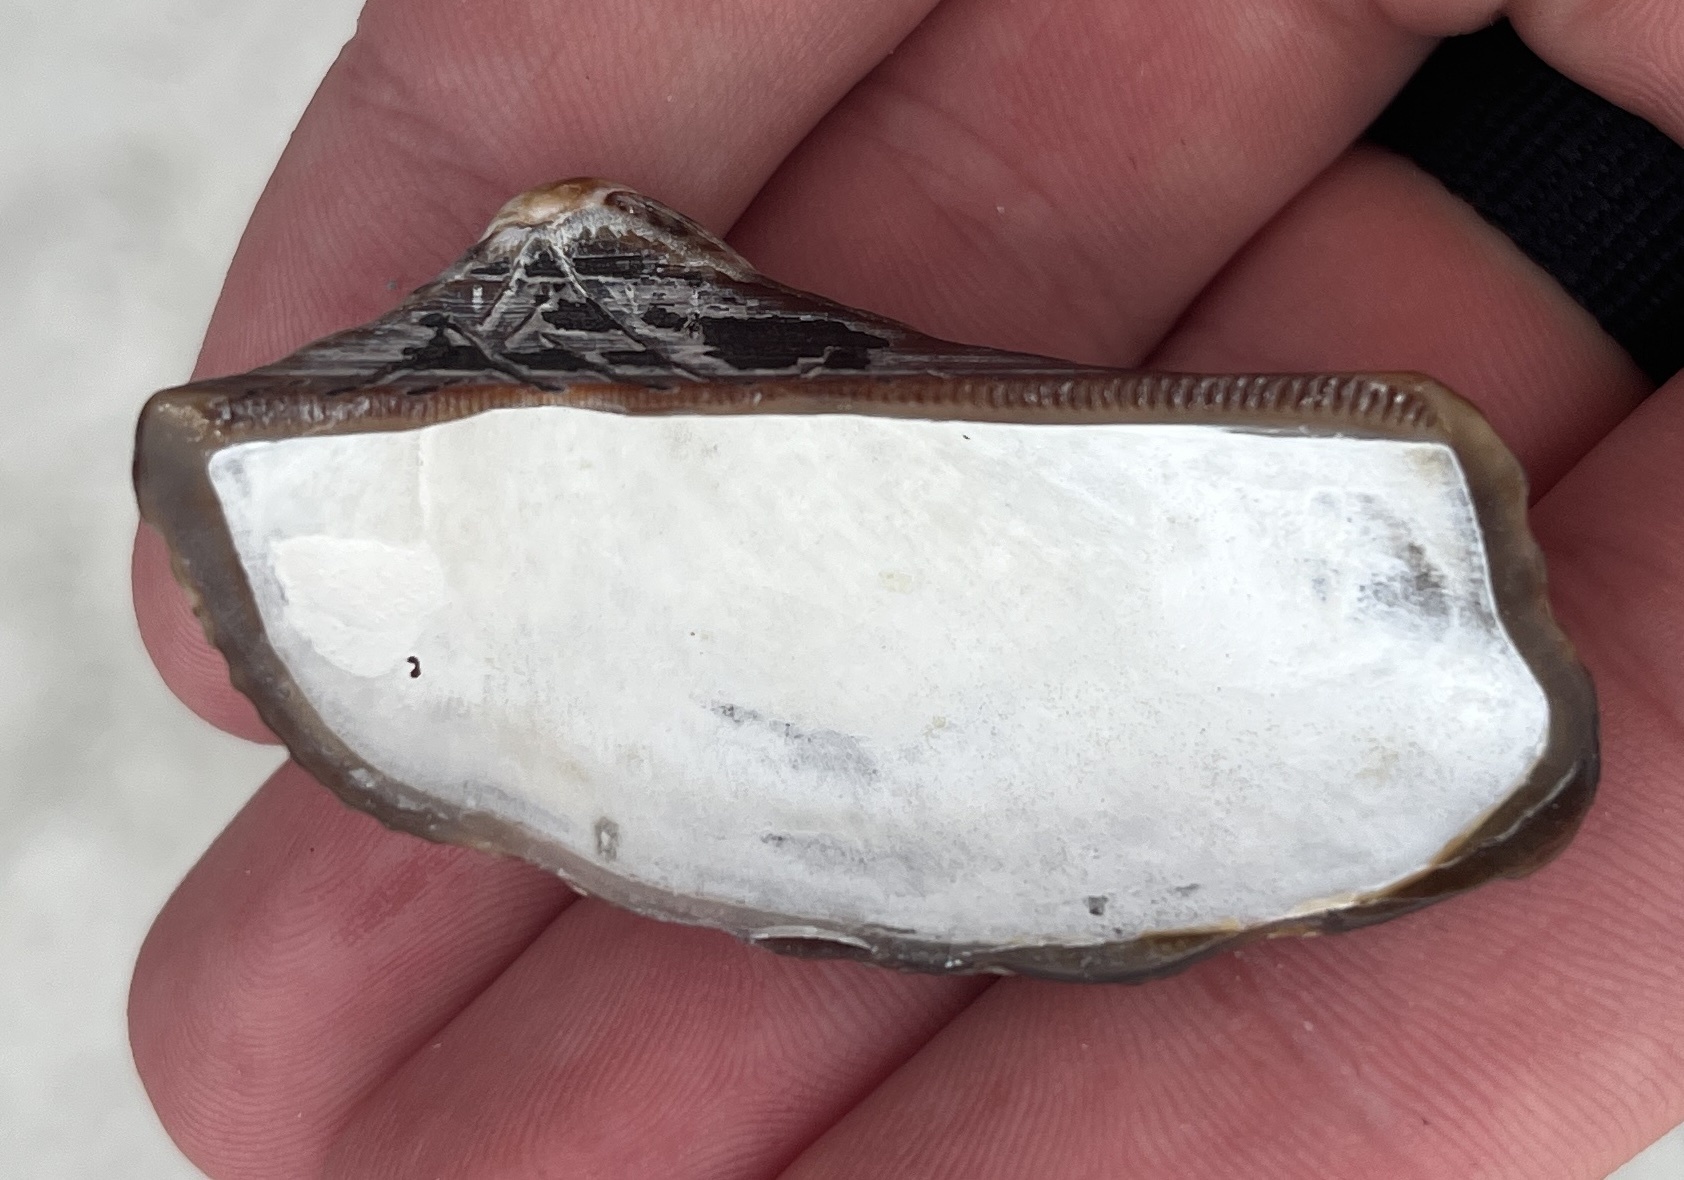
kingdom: Animalia
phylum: Mollusca
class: Bivalvia
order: Arcida
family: Arcidae
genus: Lamarcka
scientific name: Lamarcka imbricata
